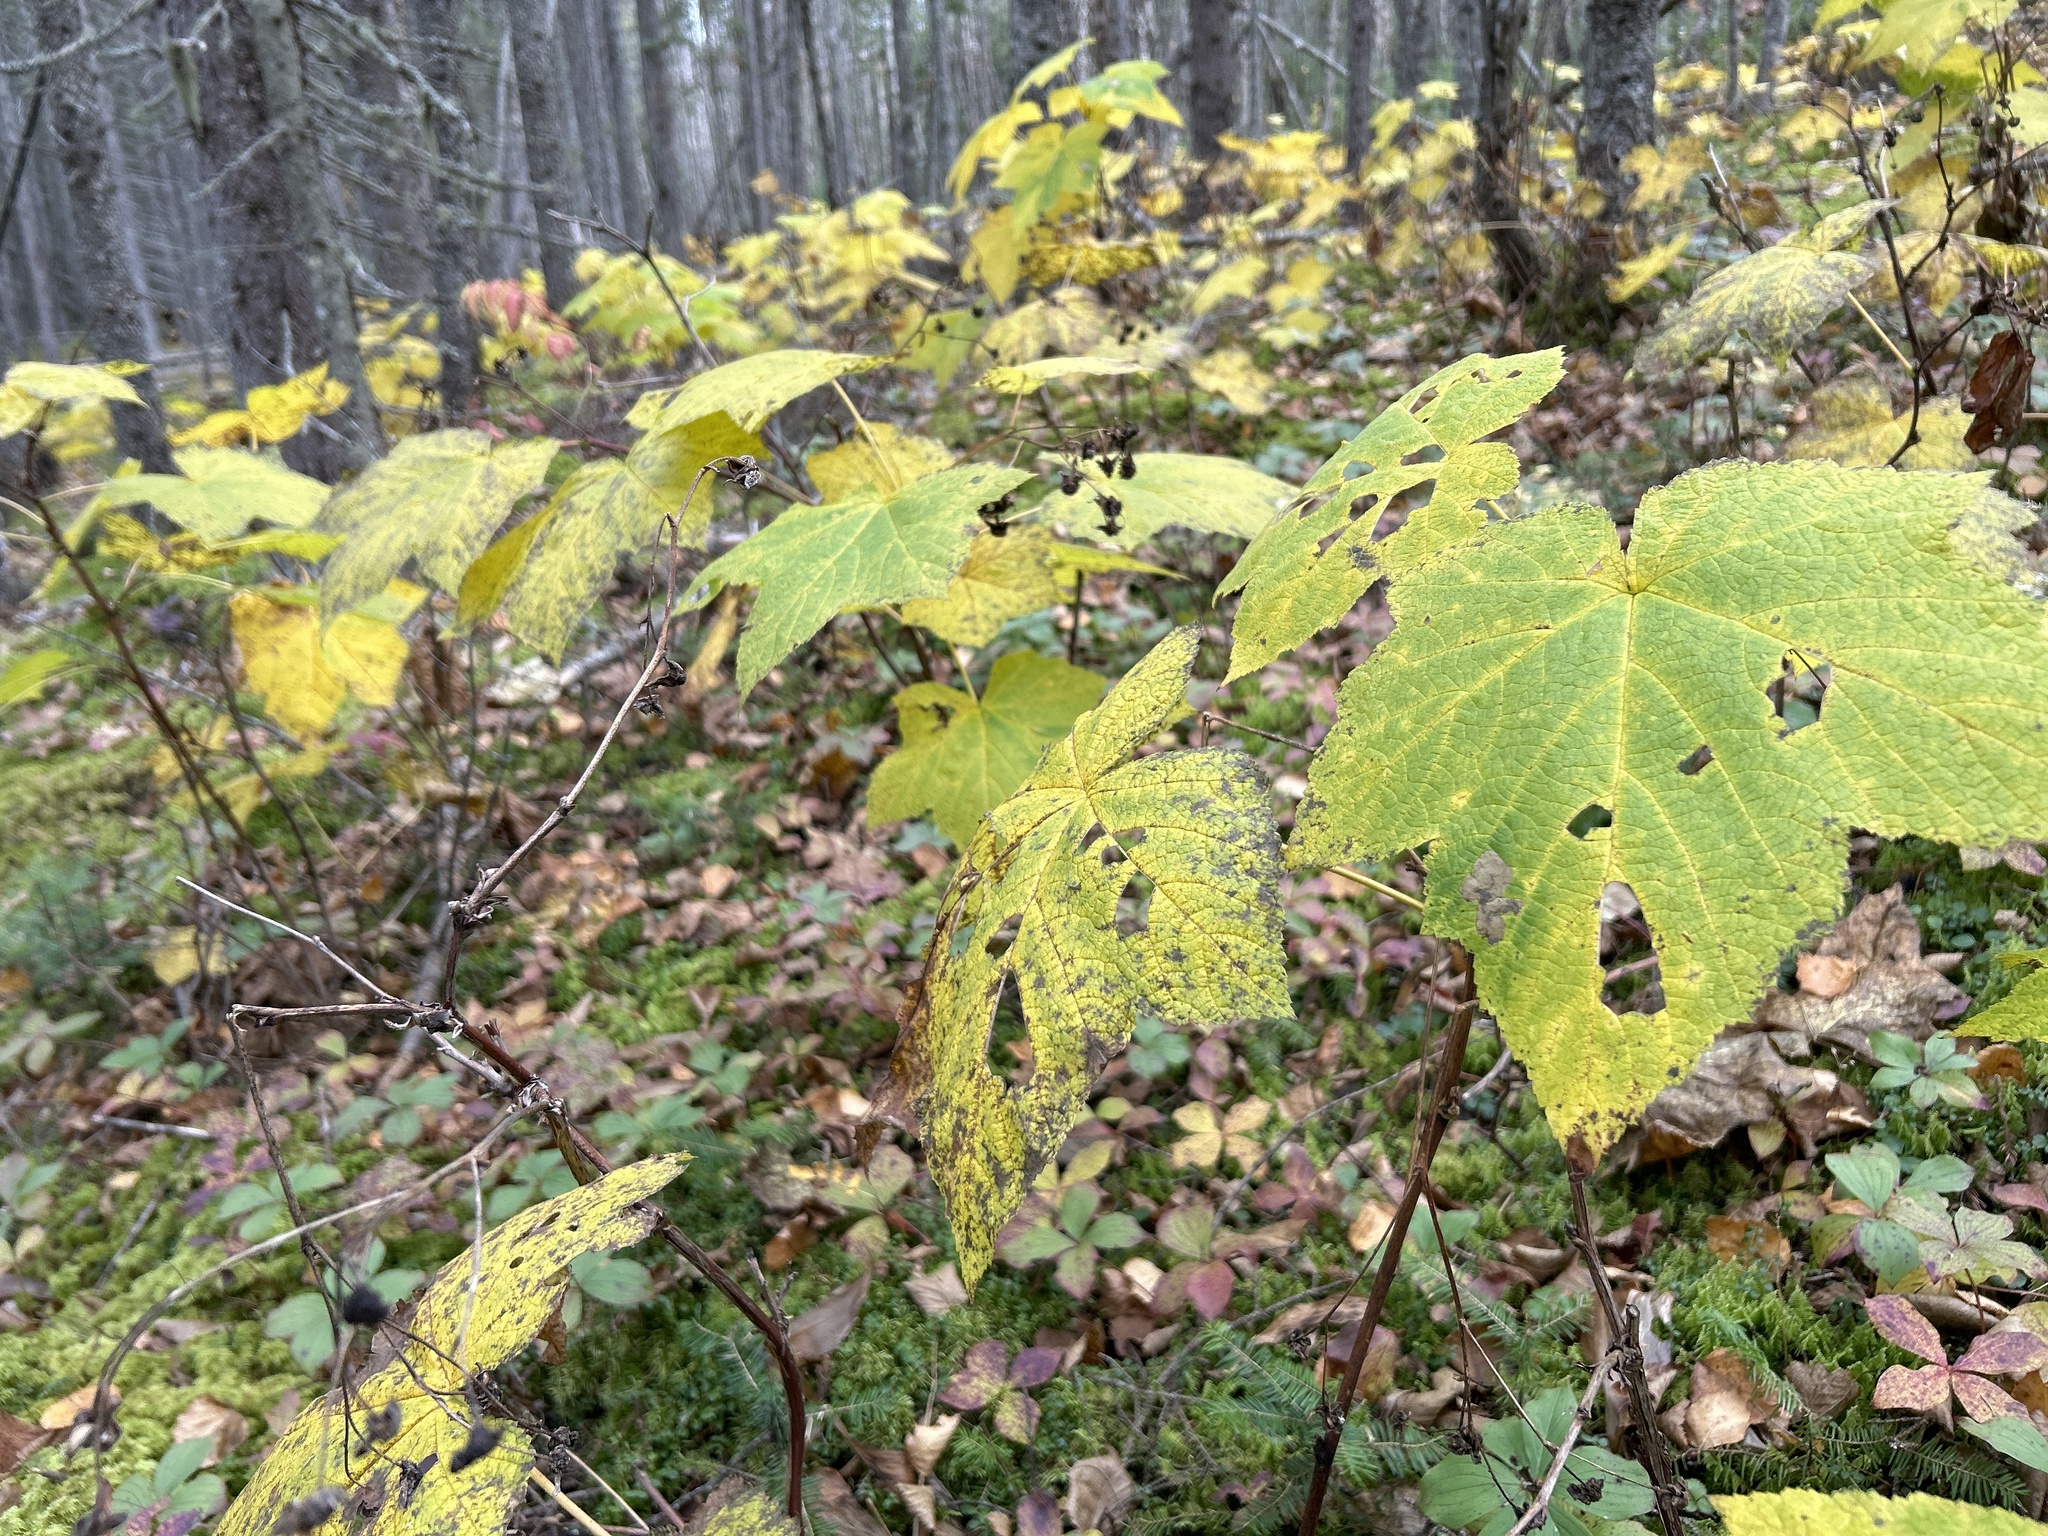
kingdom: Plantae
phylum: Tracheophyta
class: Magnoliopsida
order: Rosales
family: Rosaceae
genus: Rubus
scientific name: Rubus parviflorus
